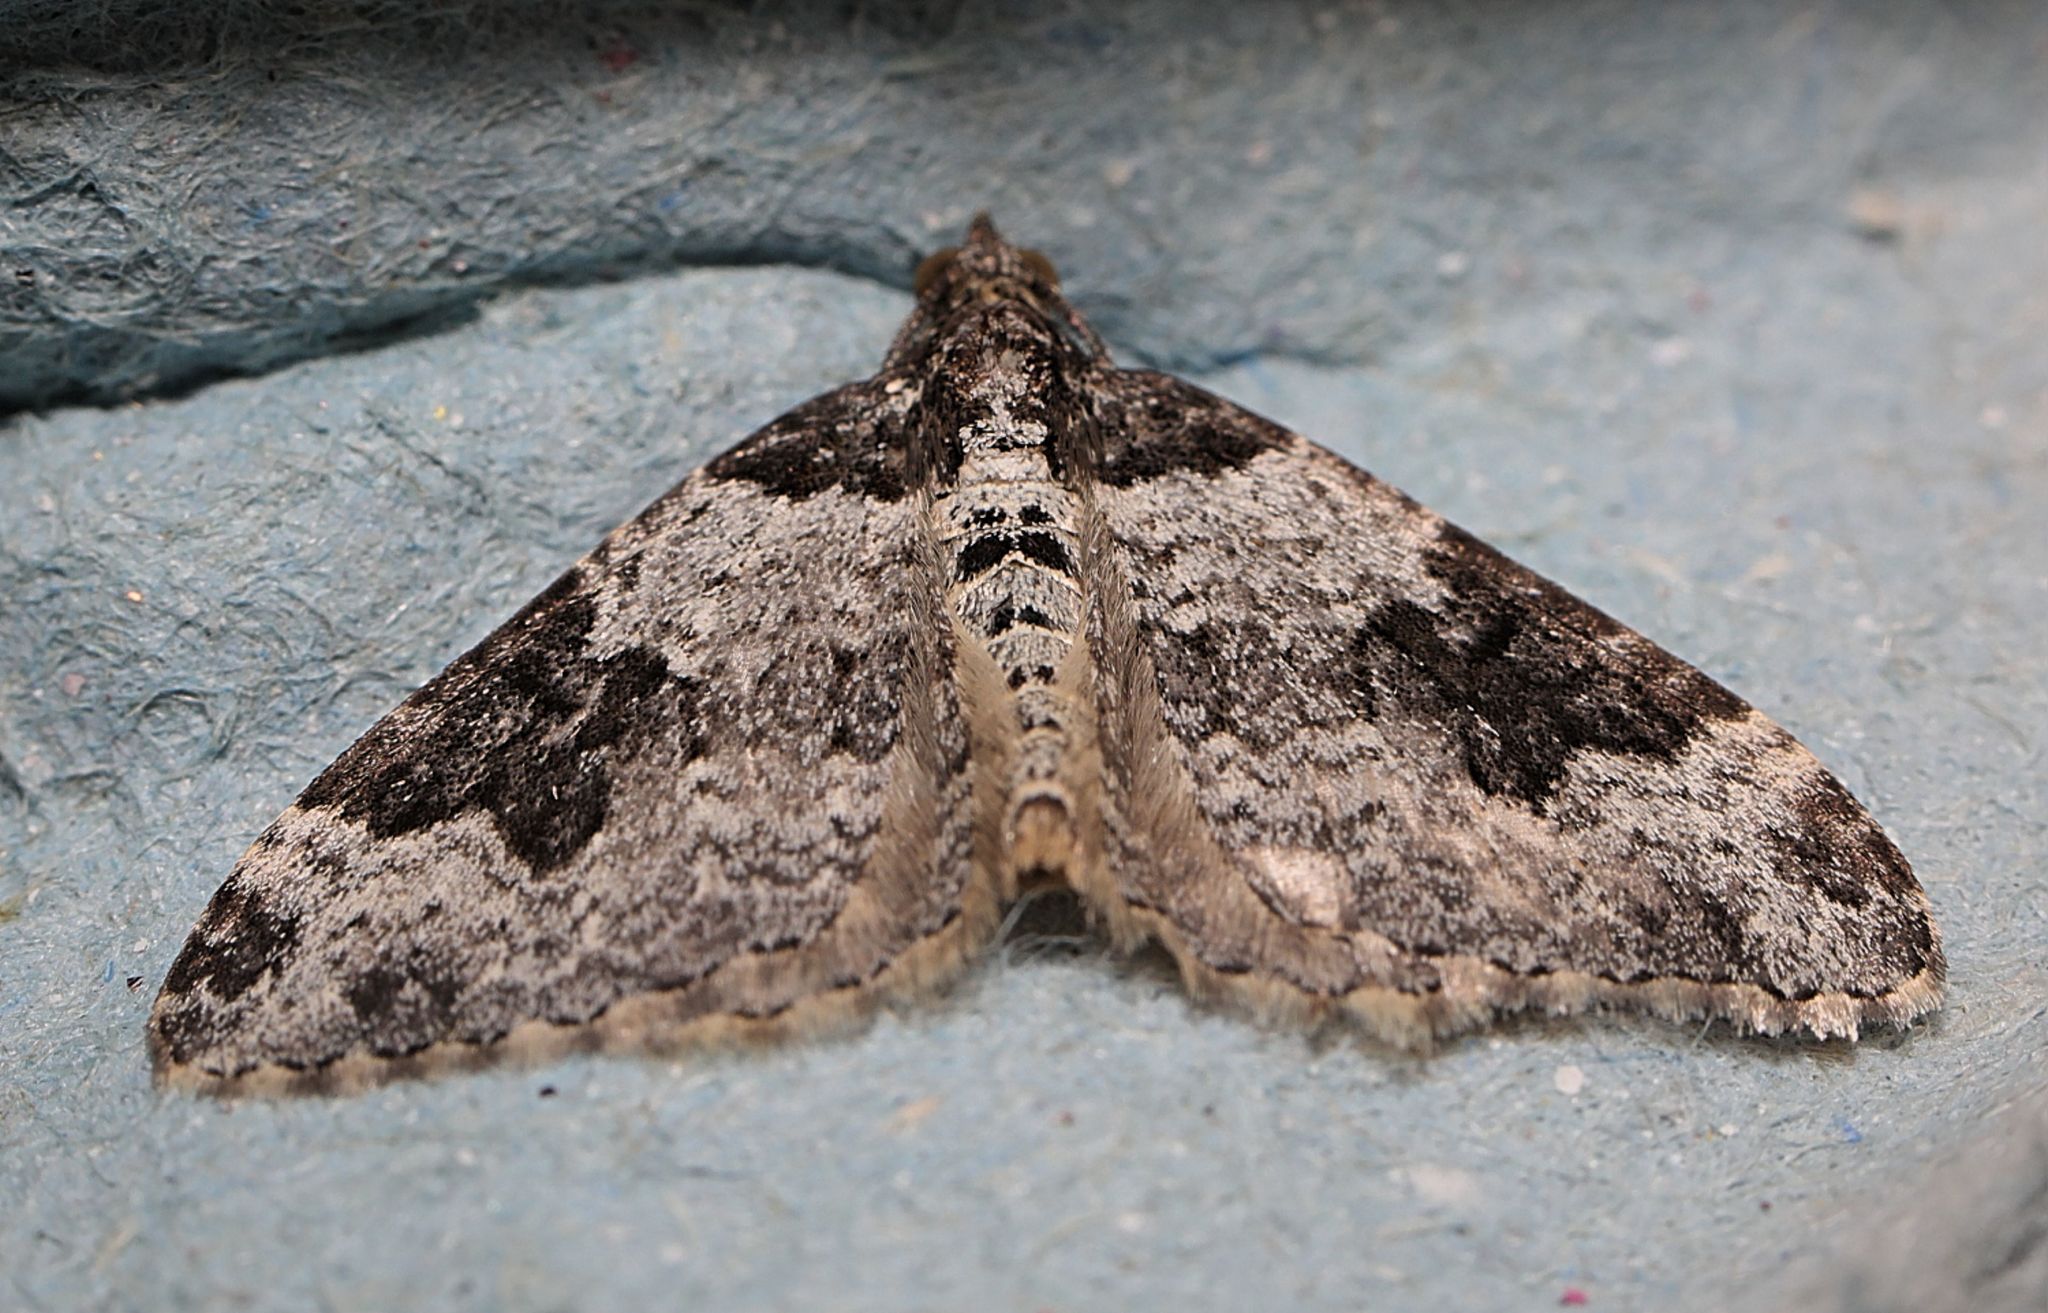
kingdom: Animalia
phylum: Arthropoda
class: Insecta
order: Lepidoptera
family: Geometridae
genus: Xanthorhoe
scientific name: Xanthorhoe fluctuata
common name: Garden carpet
